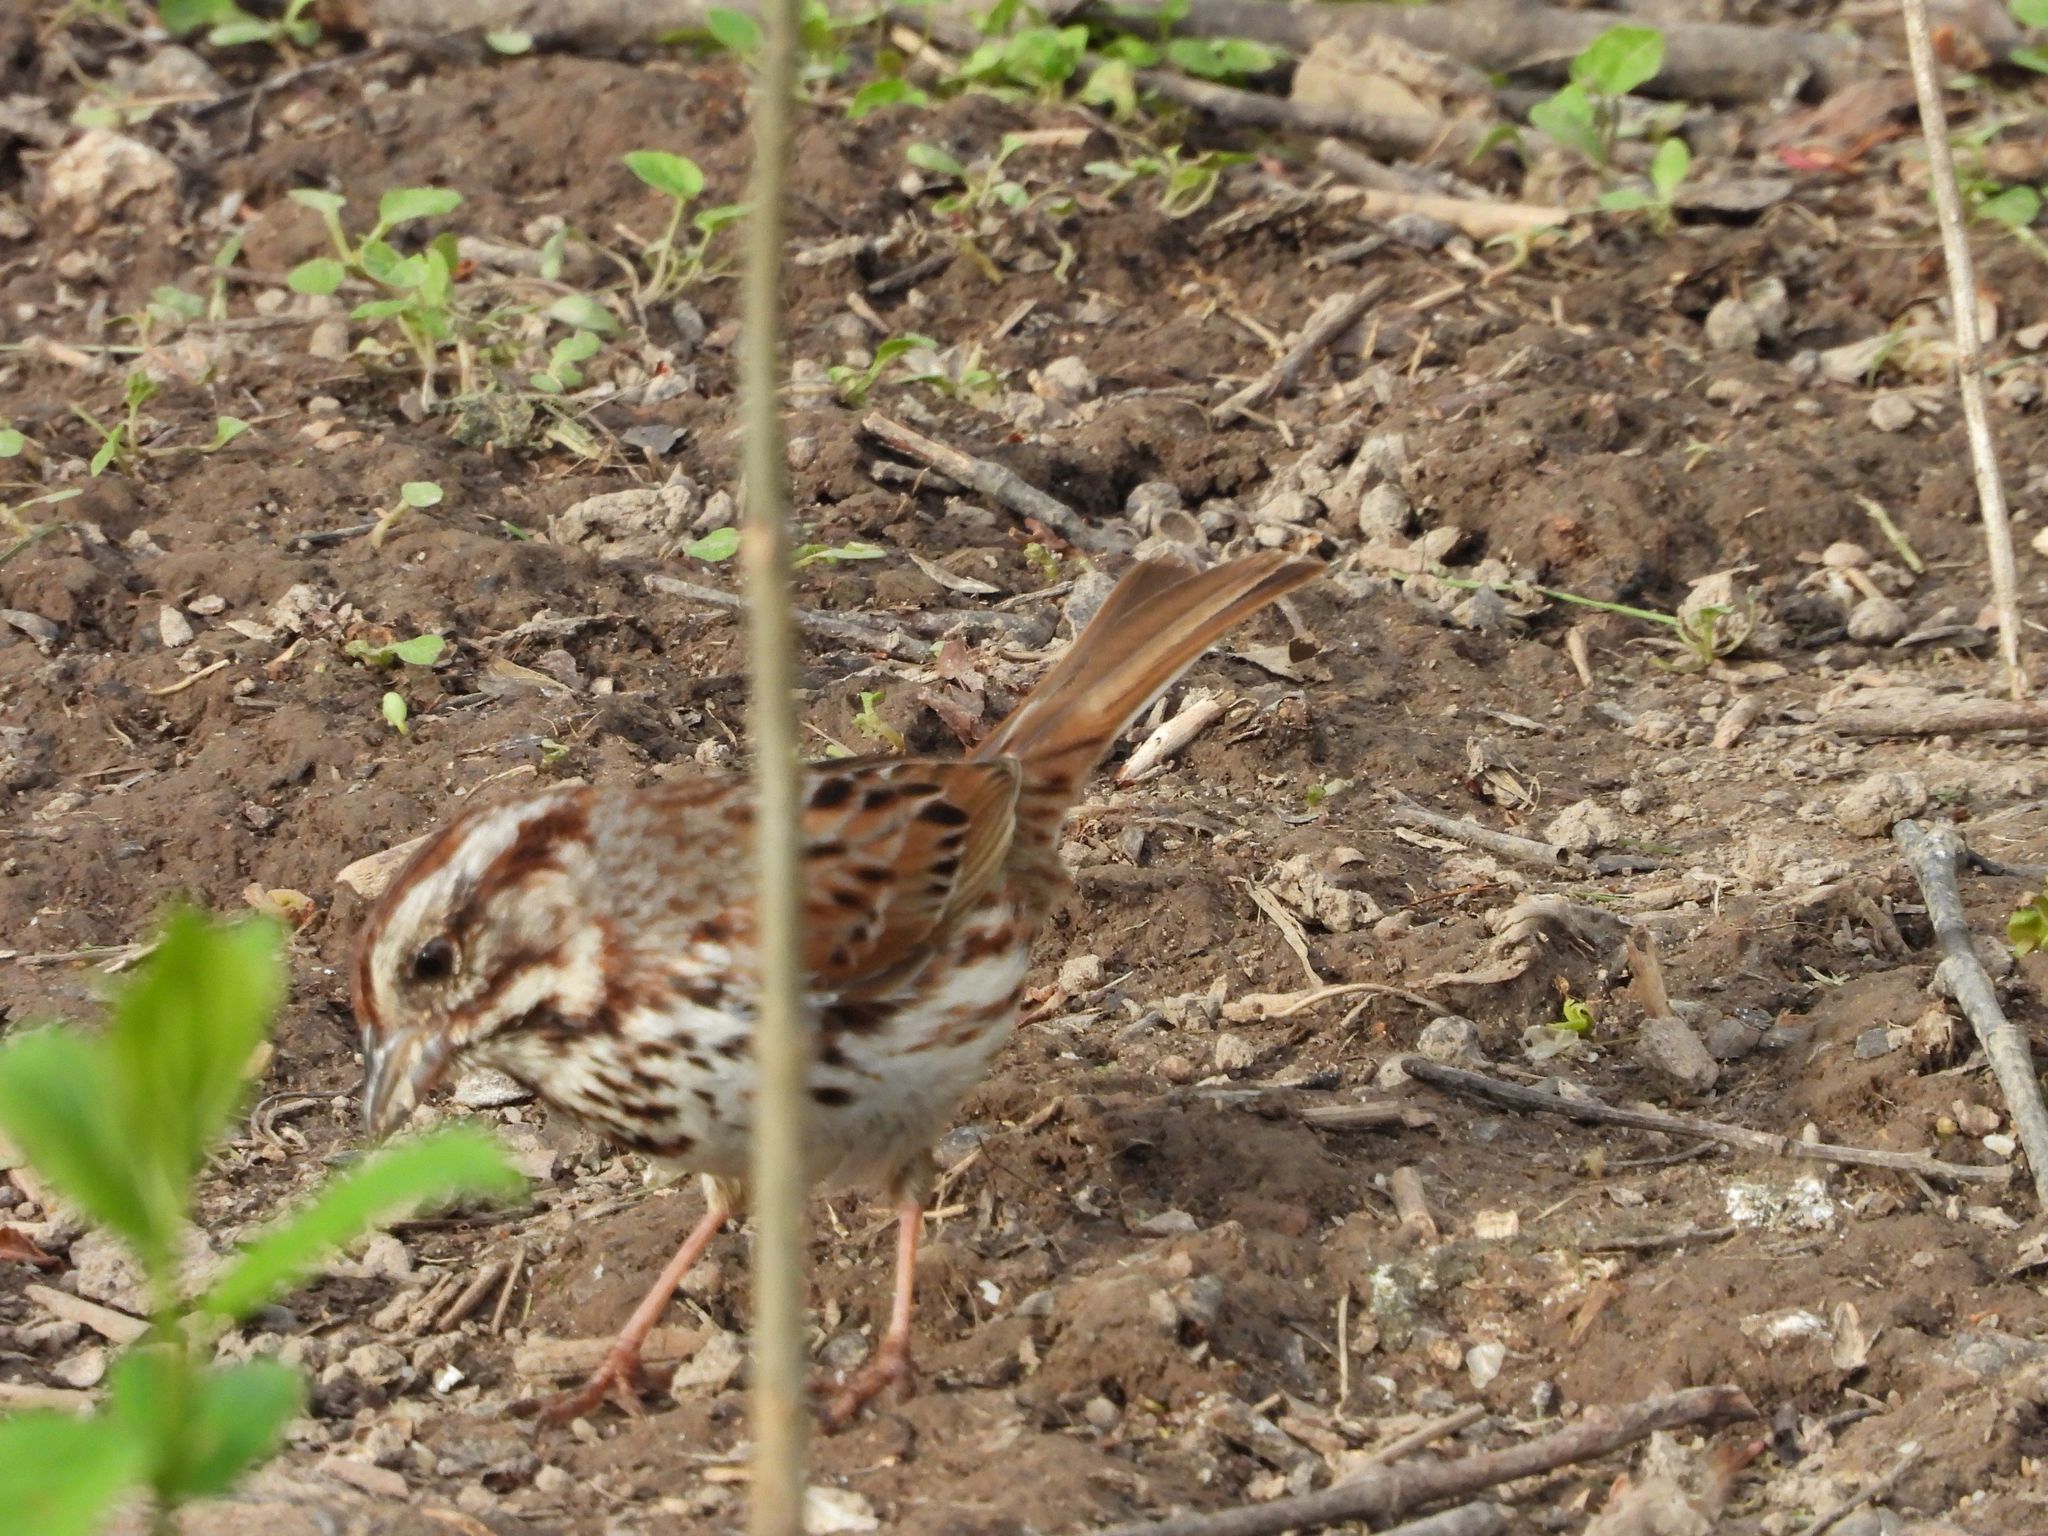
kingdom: Animalia
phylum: Chordata
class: Aves
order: Passeriformes
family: Passerellidae
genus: Melospiza
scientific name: Melospiza melodia
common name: Song sparrow
